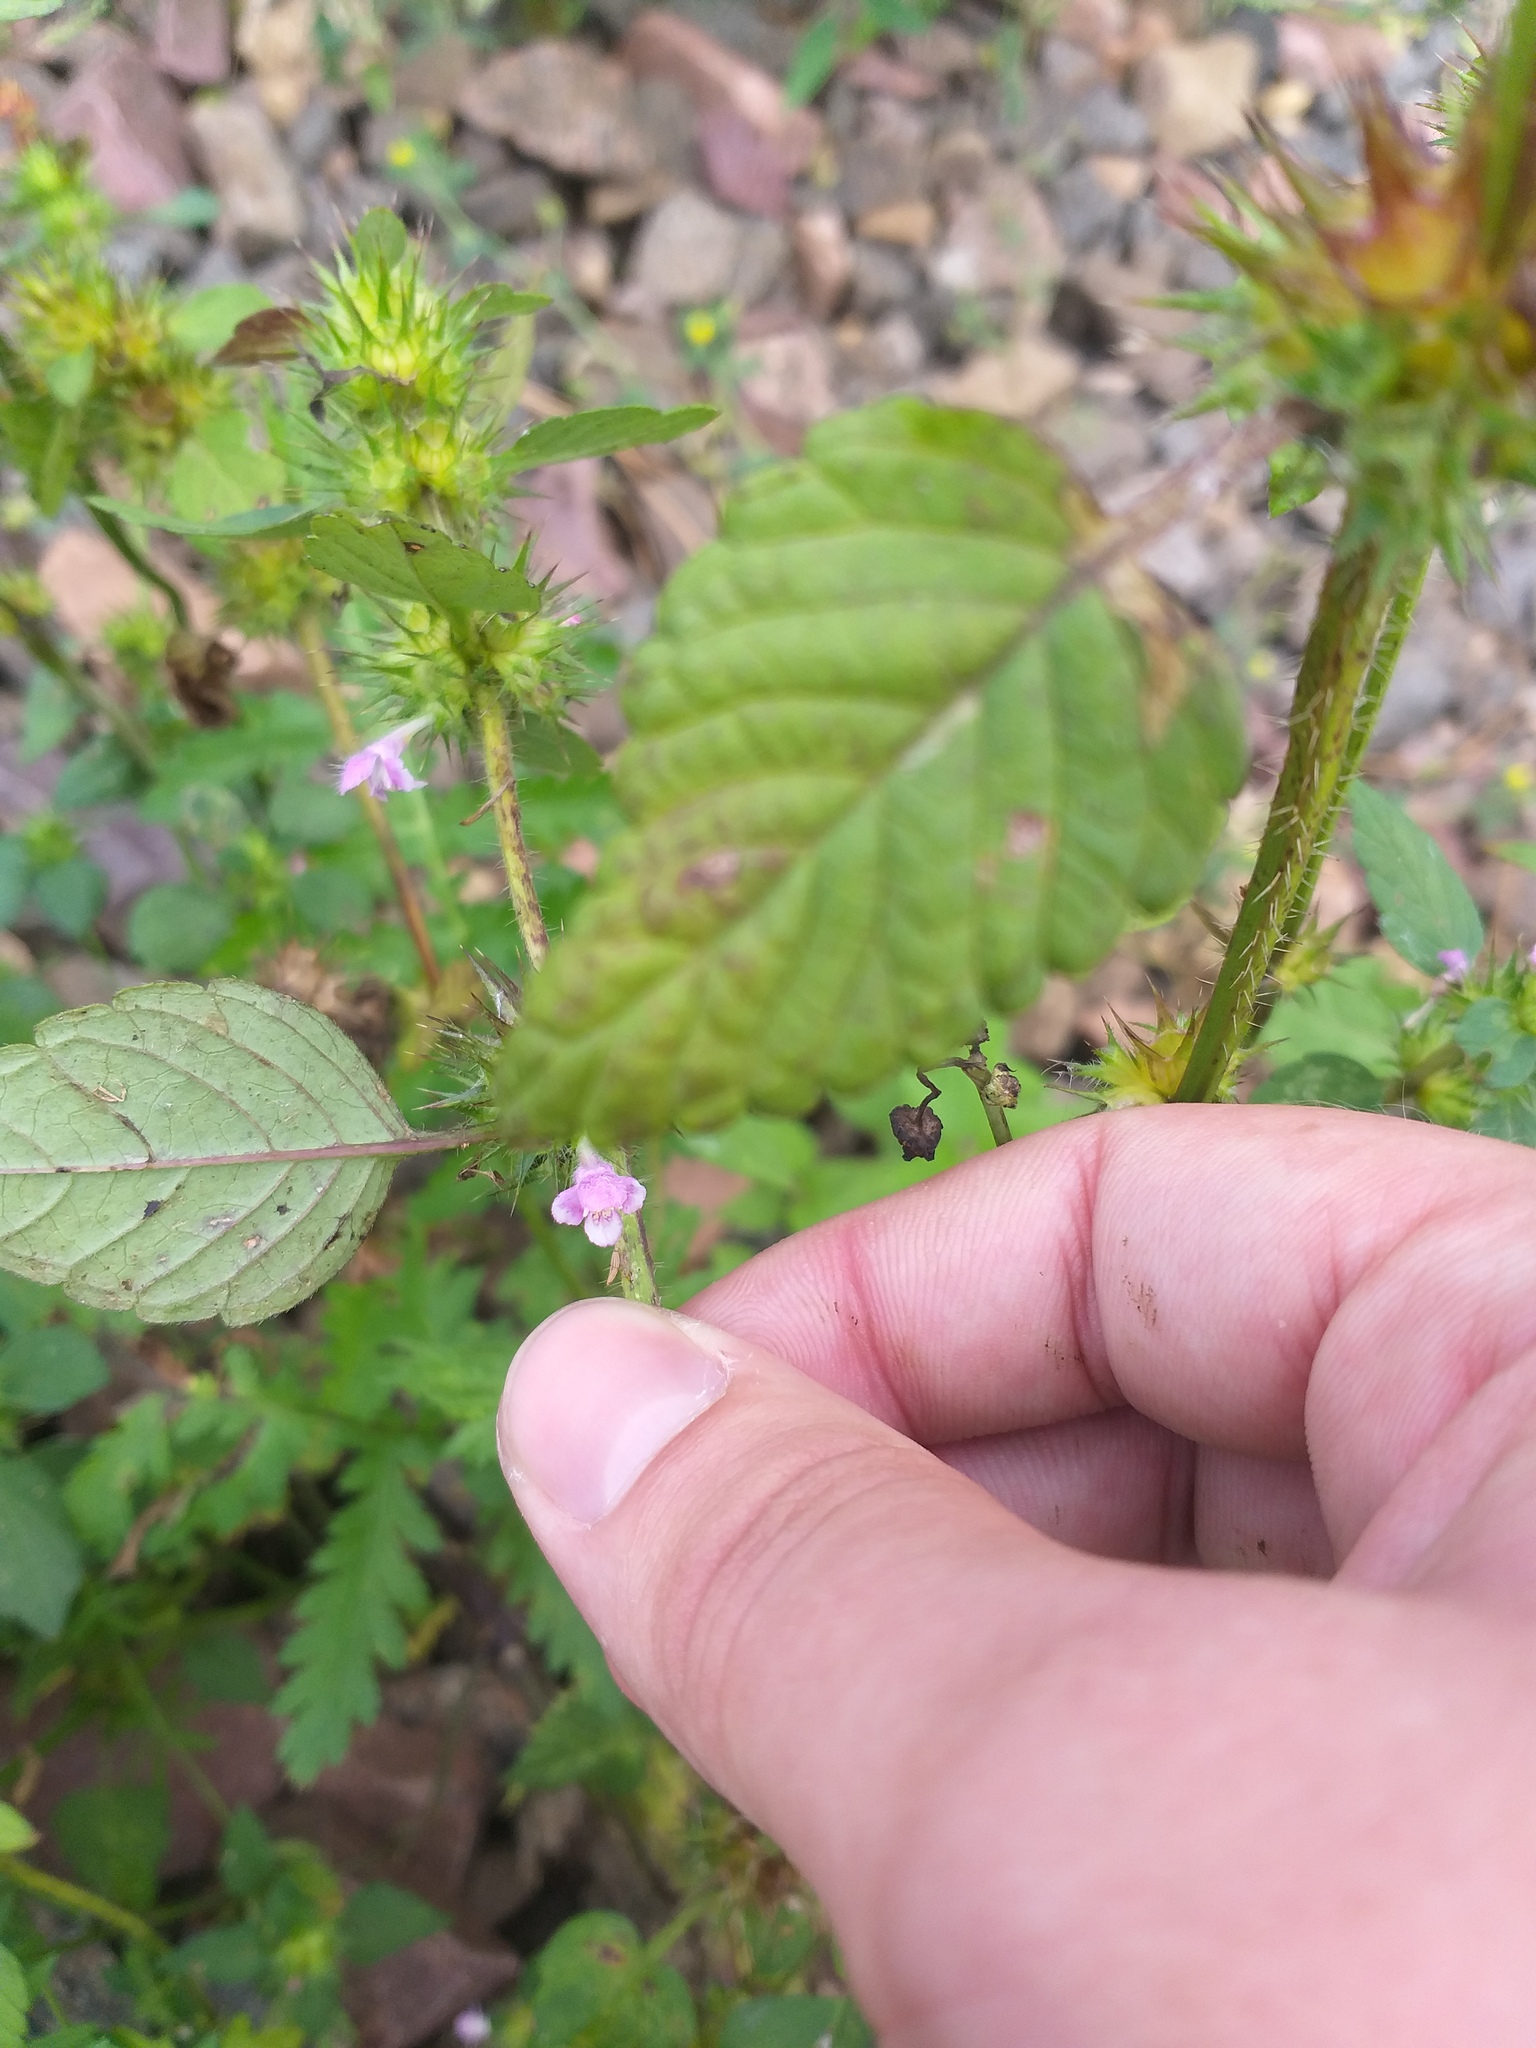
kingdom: Plantae
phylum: Tracheophyta
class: Magnoliopsida
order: Lamiales
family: Lamiaceae
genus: Galeopsis
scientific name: Galeopsis tetrahit
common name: Common hemp-nettle
